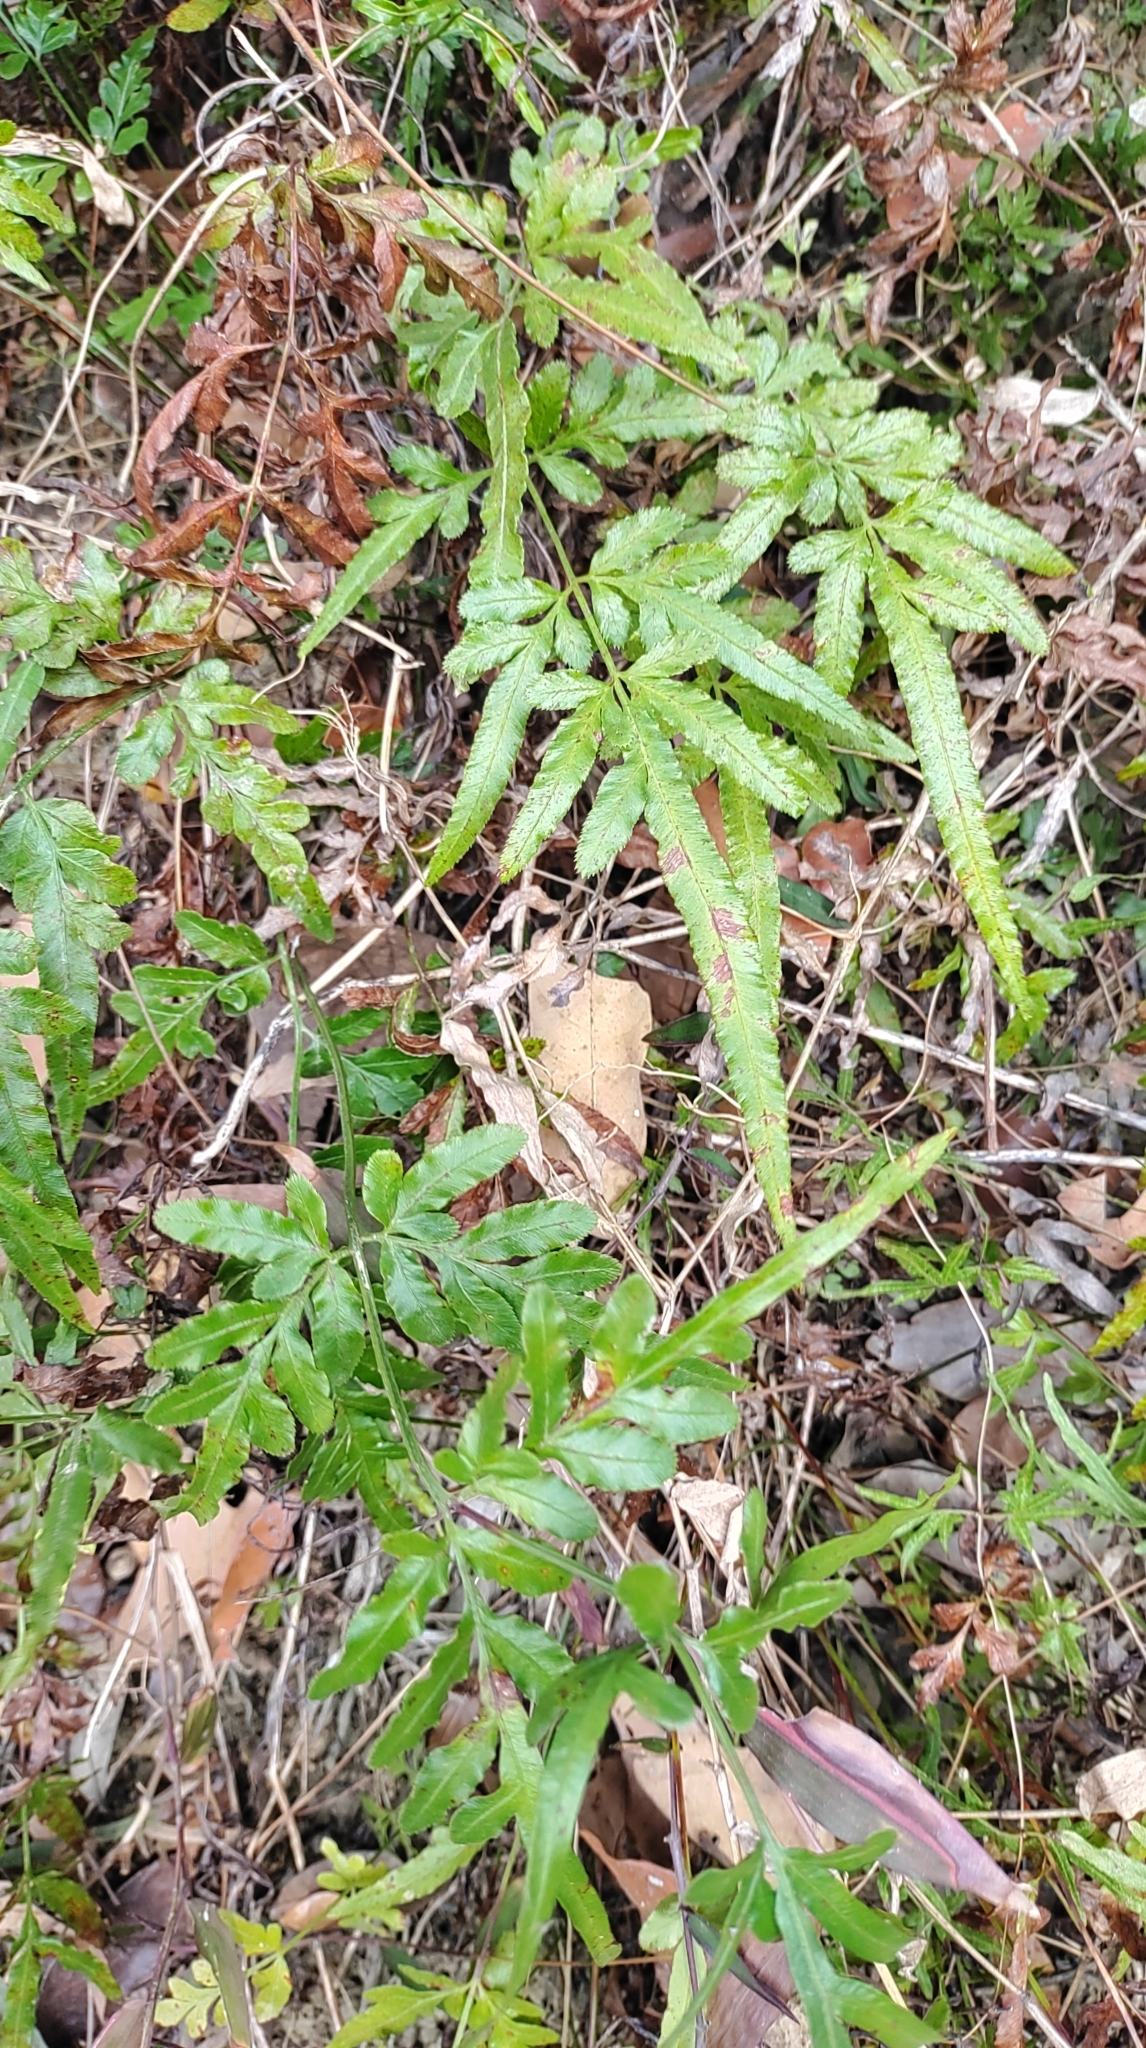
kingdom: Plantae
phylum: Tracheophyta
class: Polypodiopsida
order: Polypodiales
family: Pteridaceae
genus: Pteris
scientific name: Pteris ensiformis
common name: Sword brake
